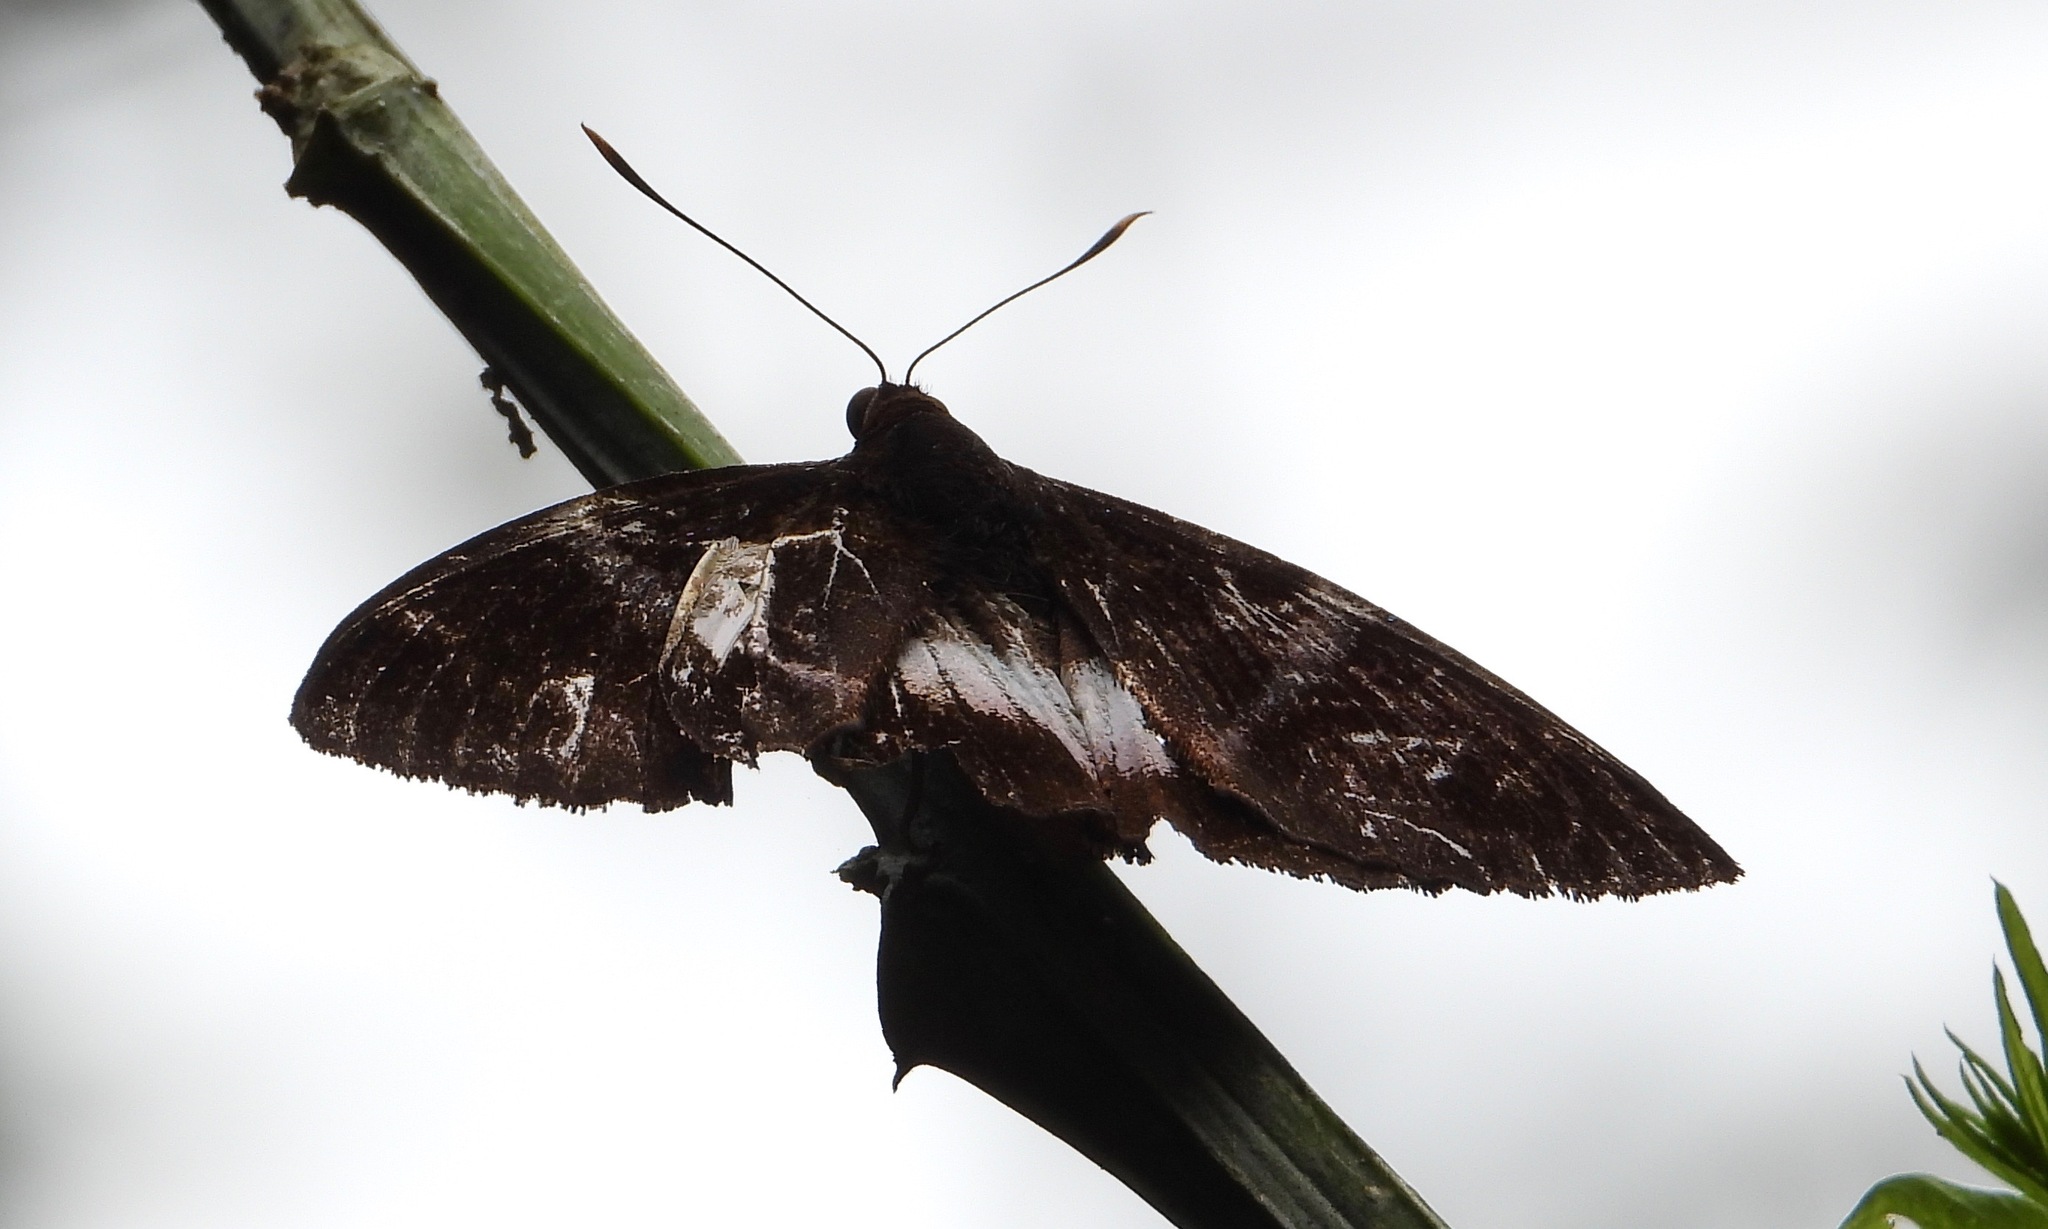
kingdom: Animalia
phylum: Arthropoda
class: Insecta
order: Lepidoptera
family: Castniidae
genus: Castniomera
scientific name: Castniomera atymnius
